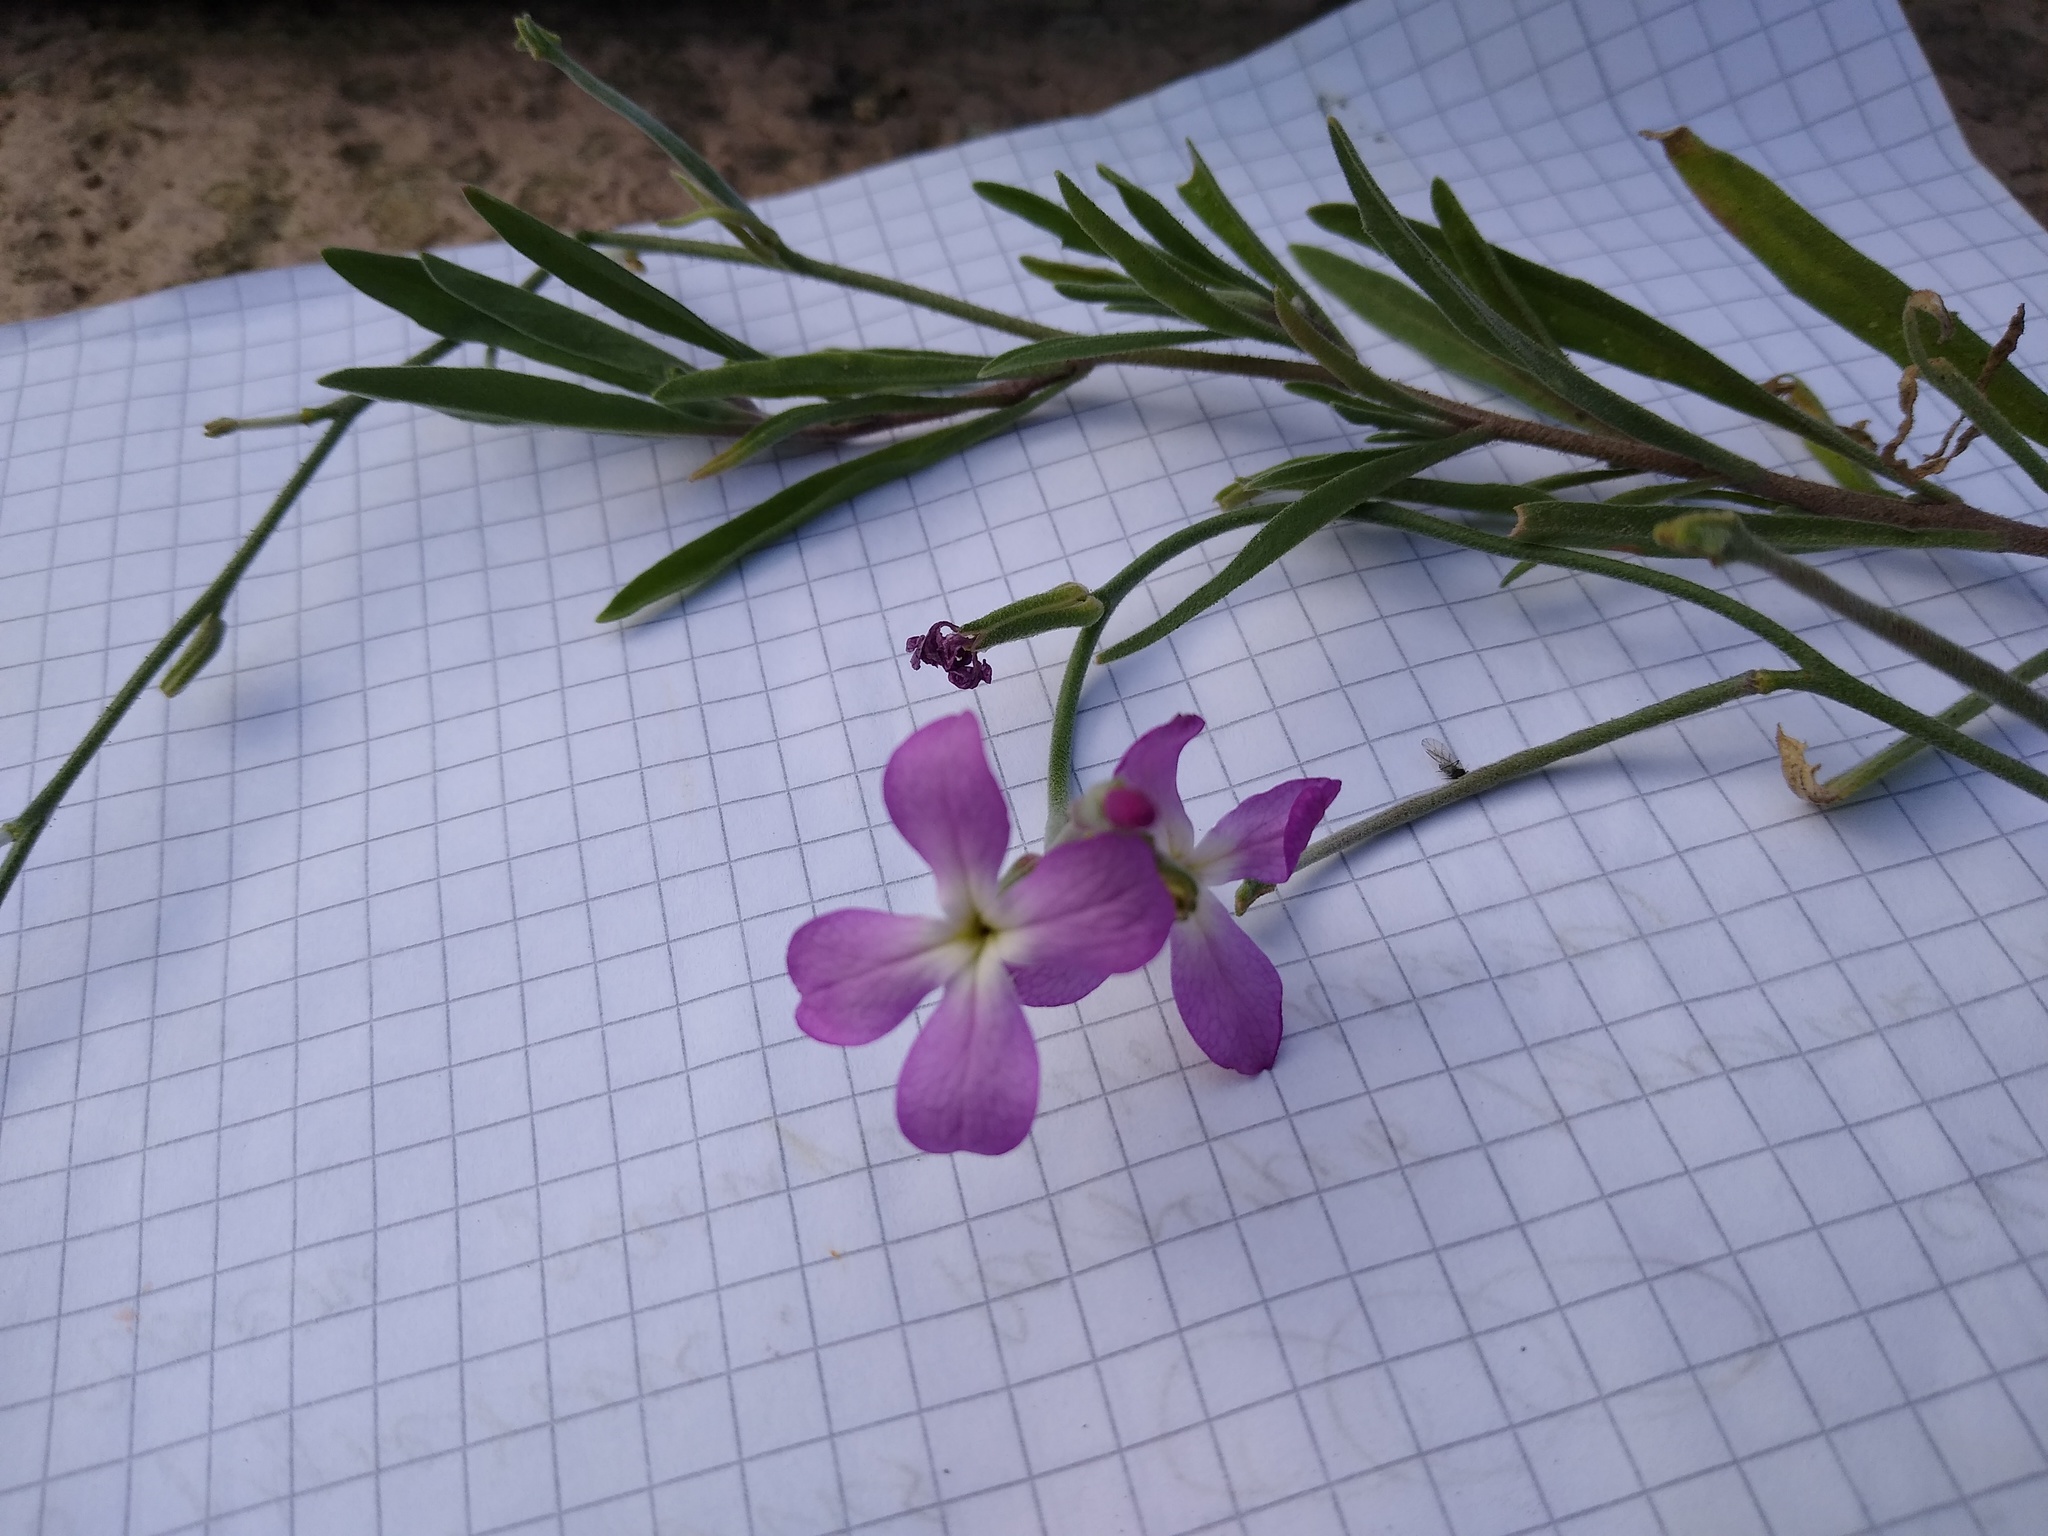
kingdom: Plantae
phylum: Tracheophyta
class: Magnoliopsida
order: Brassicales
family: Brassicaceae
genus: Matthiola
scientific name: Matthiola incana
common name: Hoary stock
